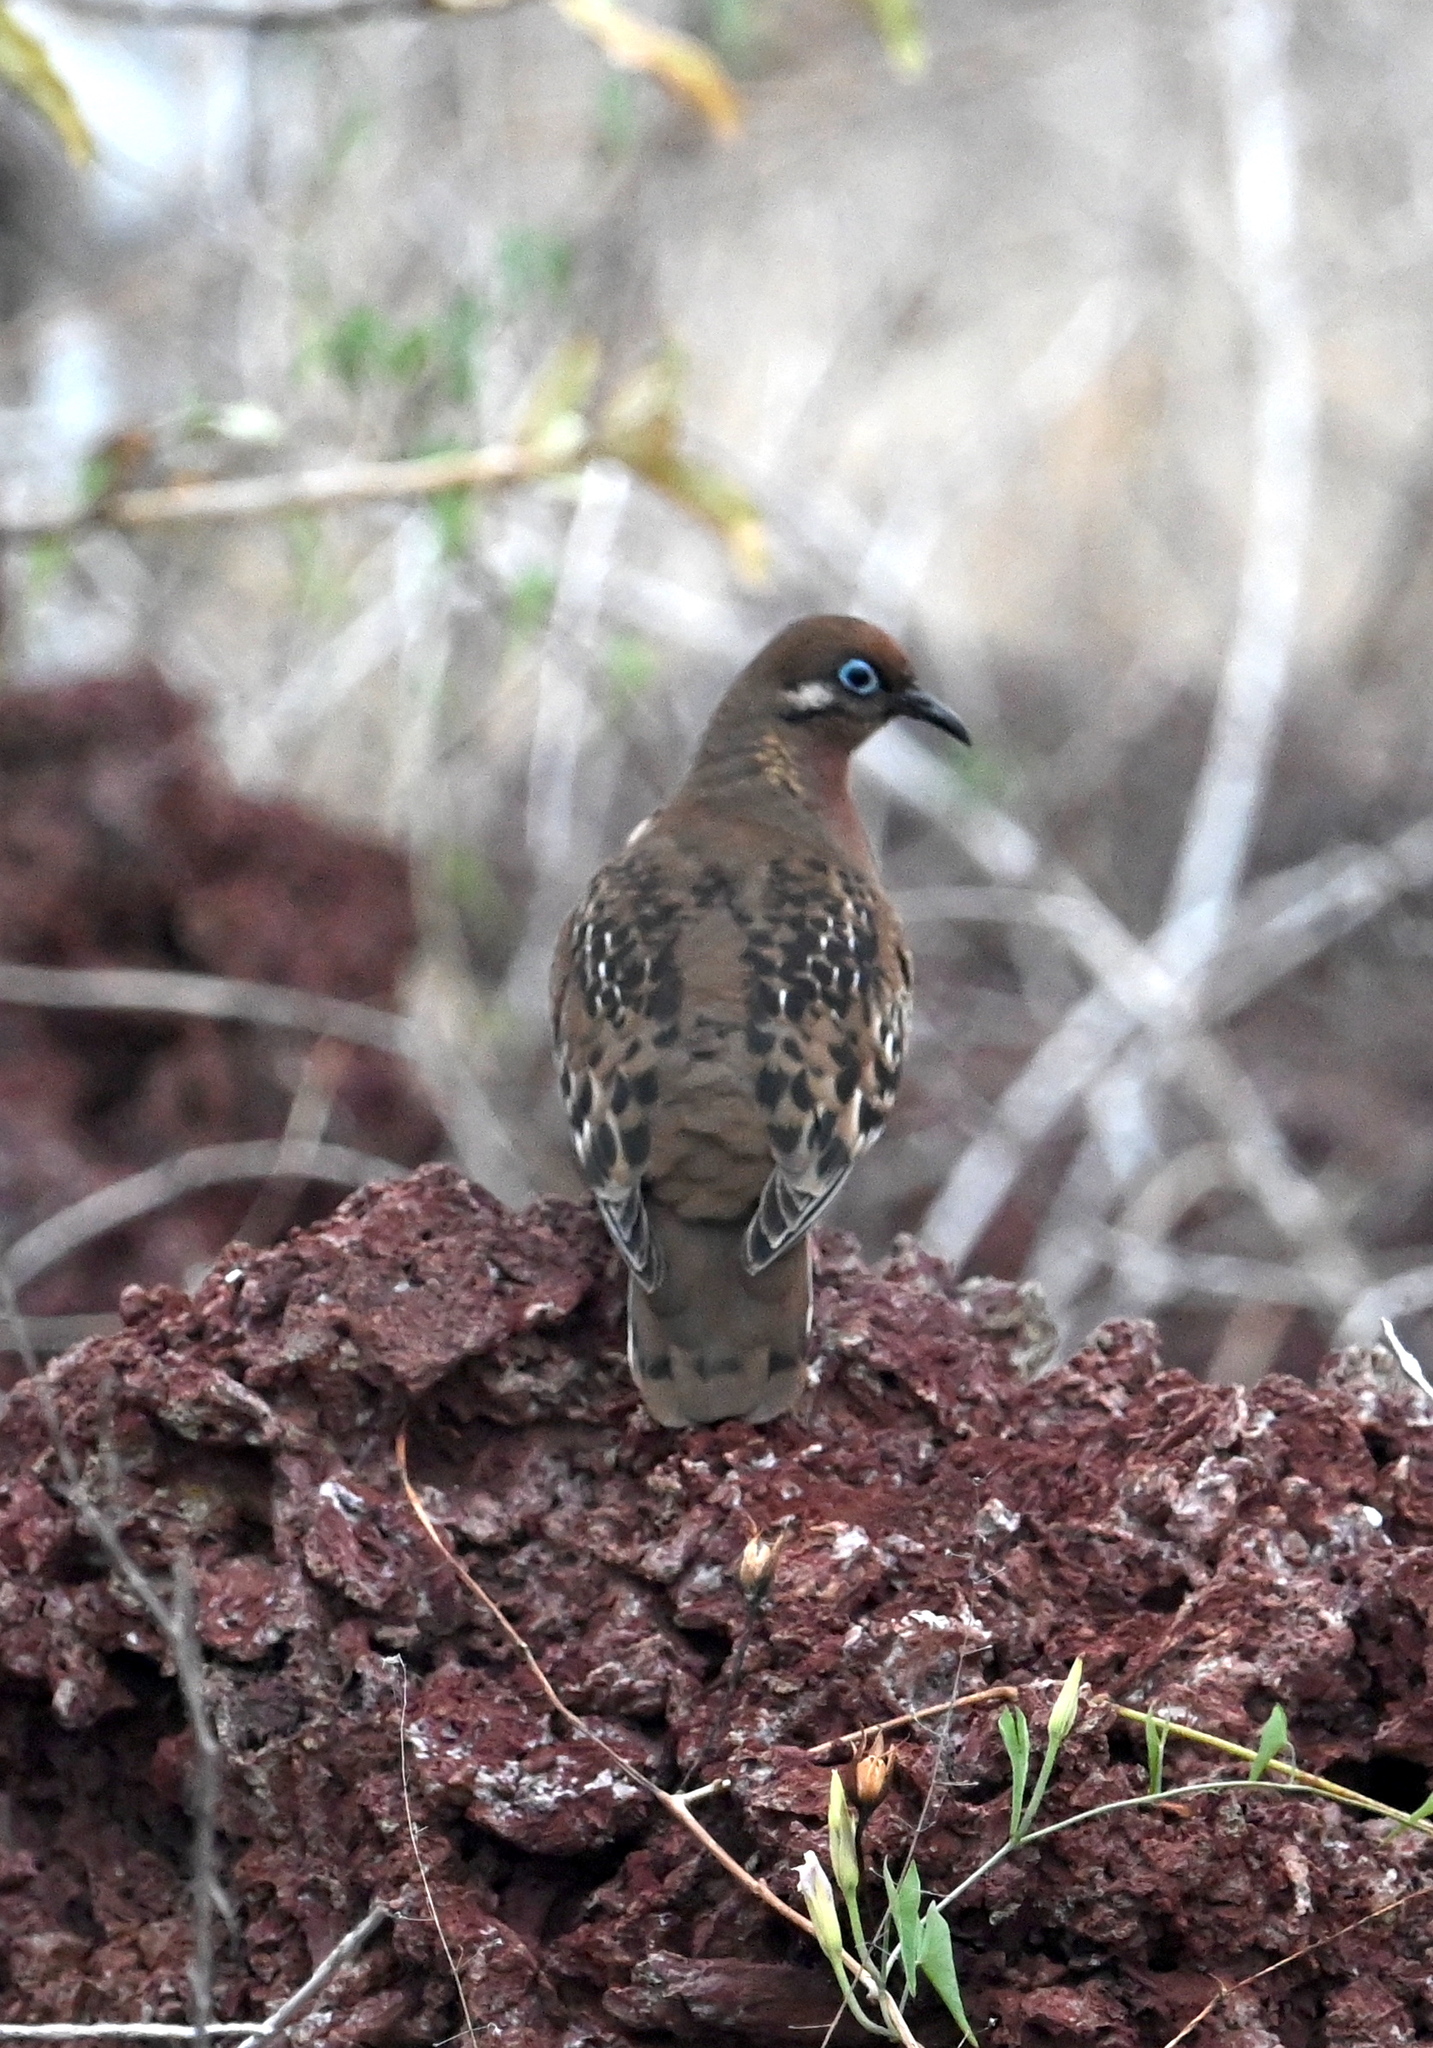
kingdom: Animalia
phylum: Chordata
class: Aves
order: Columbiformes
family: Columbidae
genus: Zenaida
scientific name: Zenaida galapagoensis
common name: Galapagos dove
